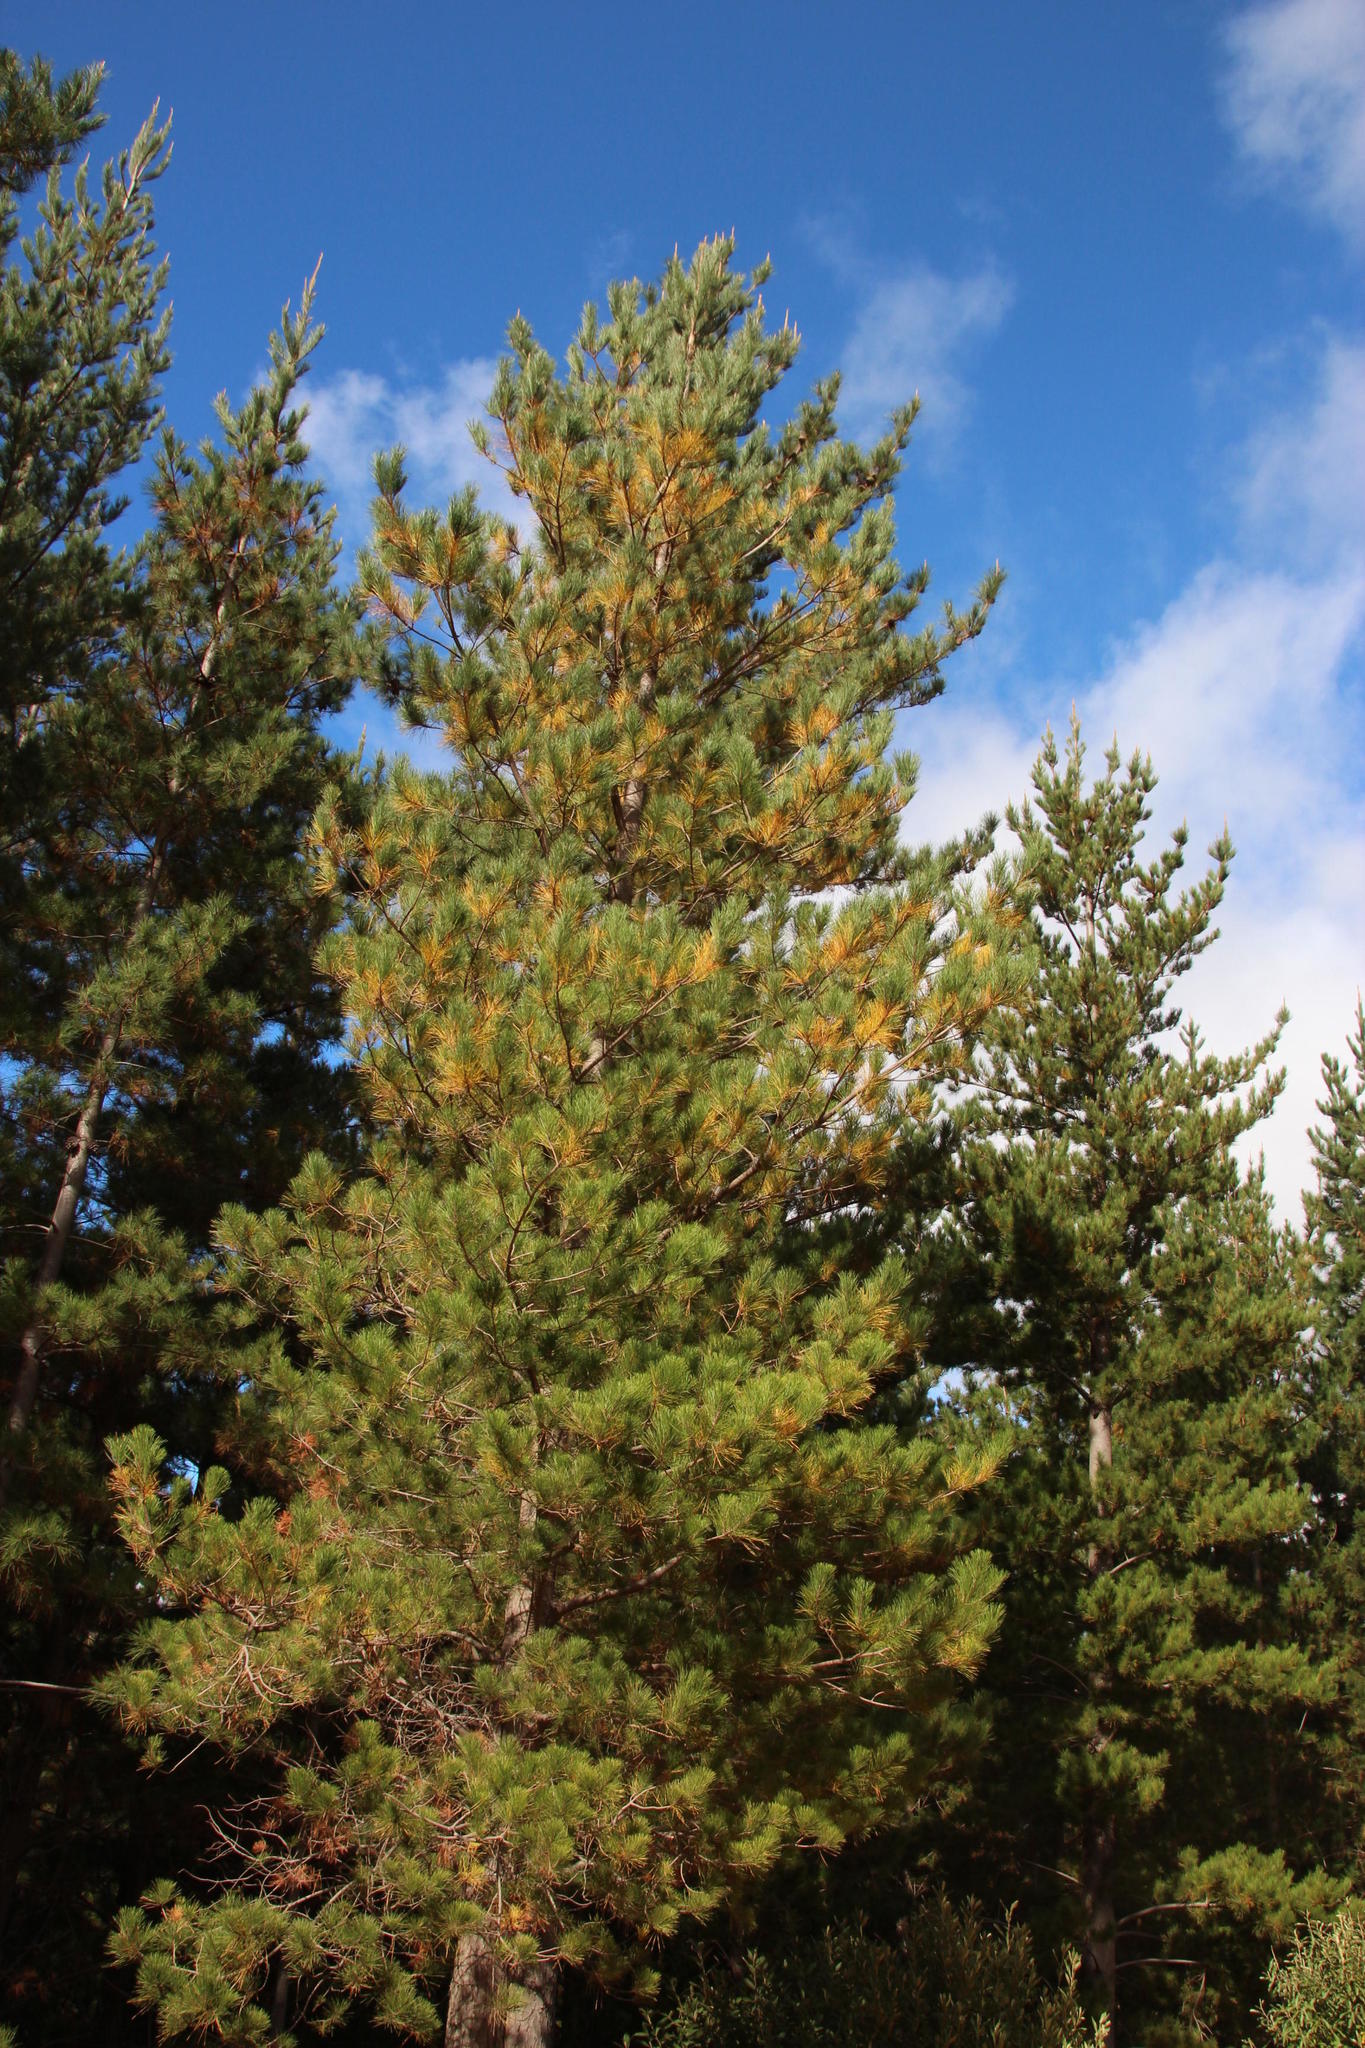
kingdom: Plantae
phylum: Tracheophyta
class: Pinopsida
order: Pinales
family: Pinaceae
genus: Pinus
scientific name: Pinus radiata
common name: Monterey pine
